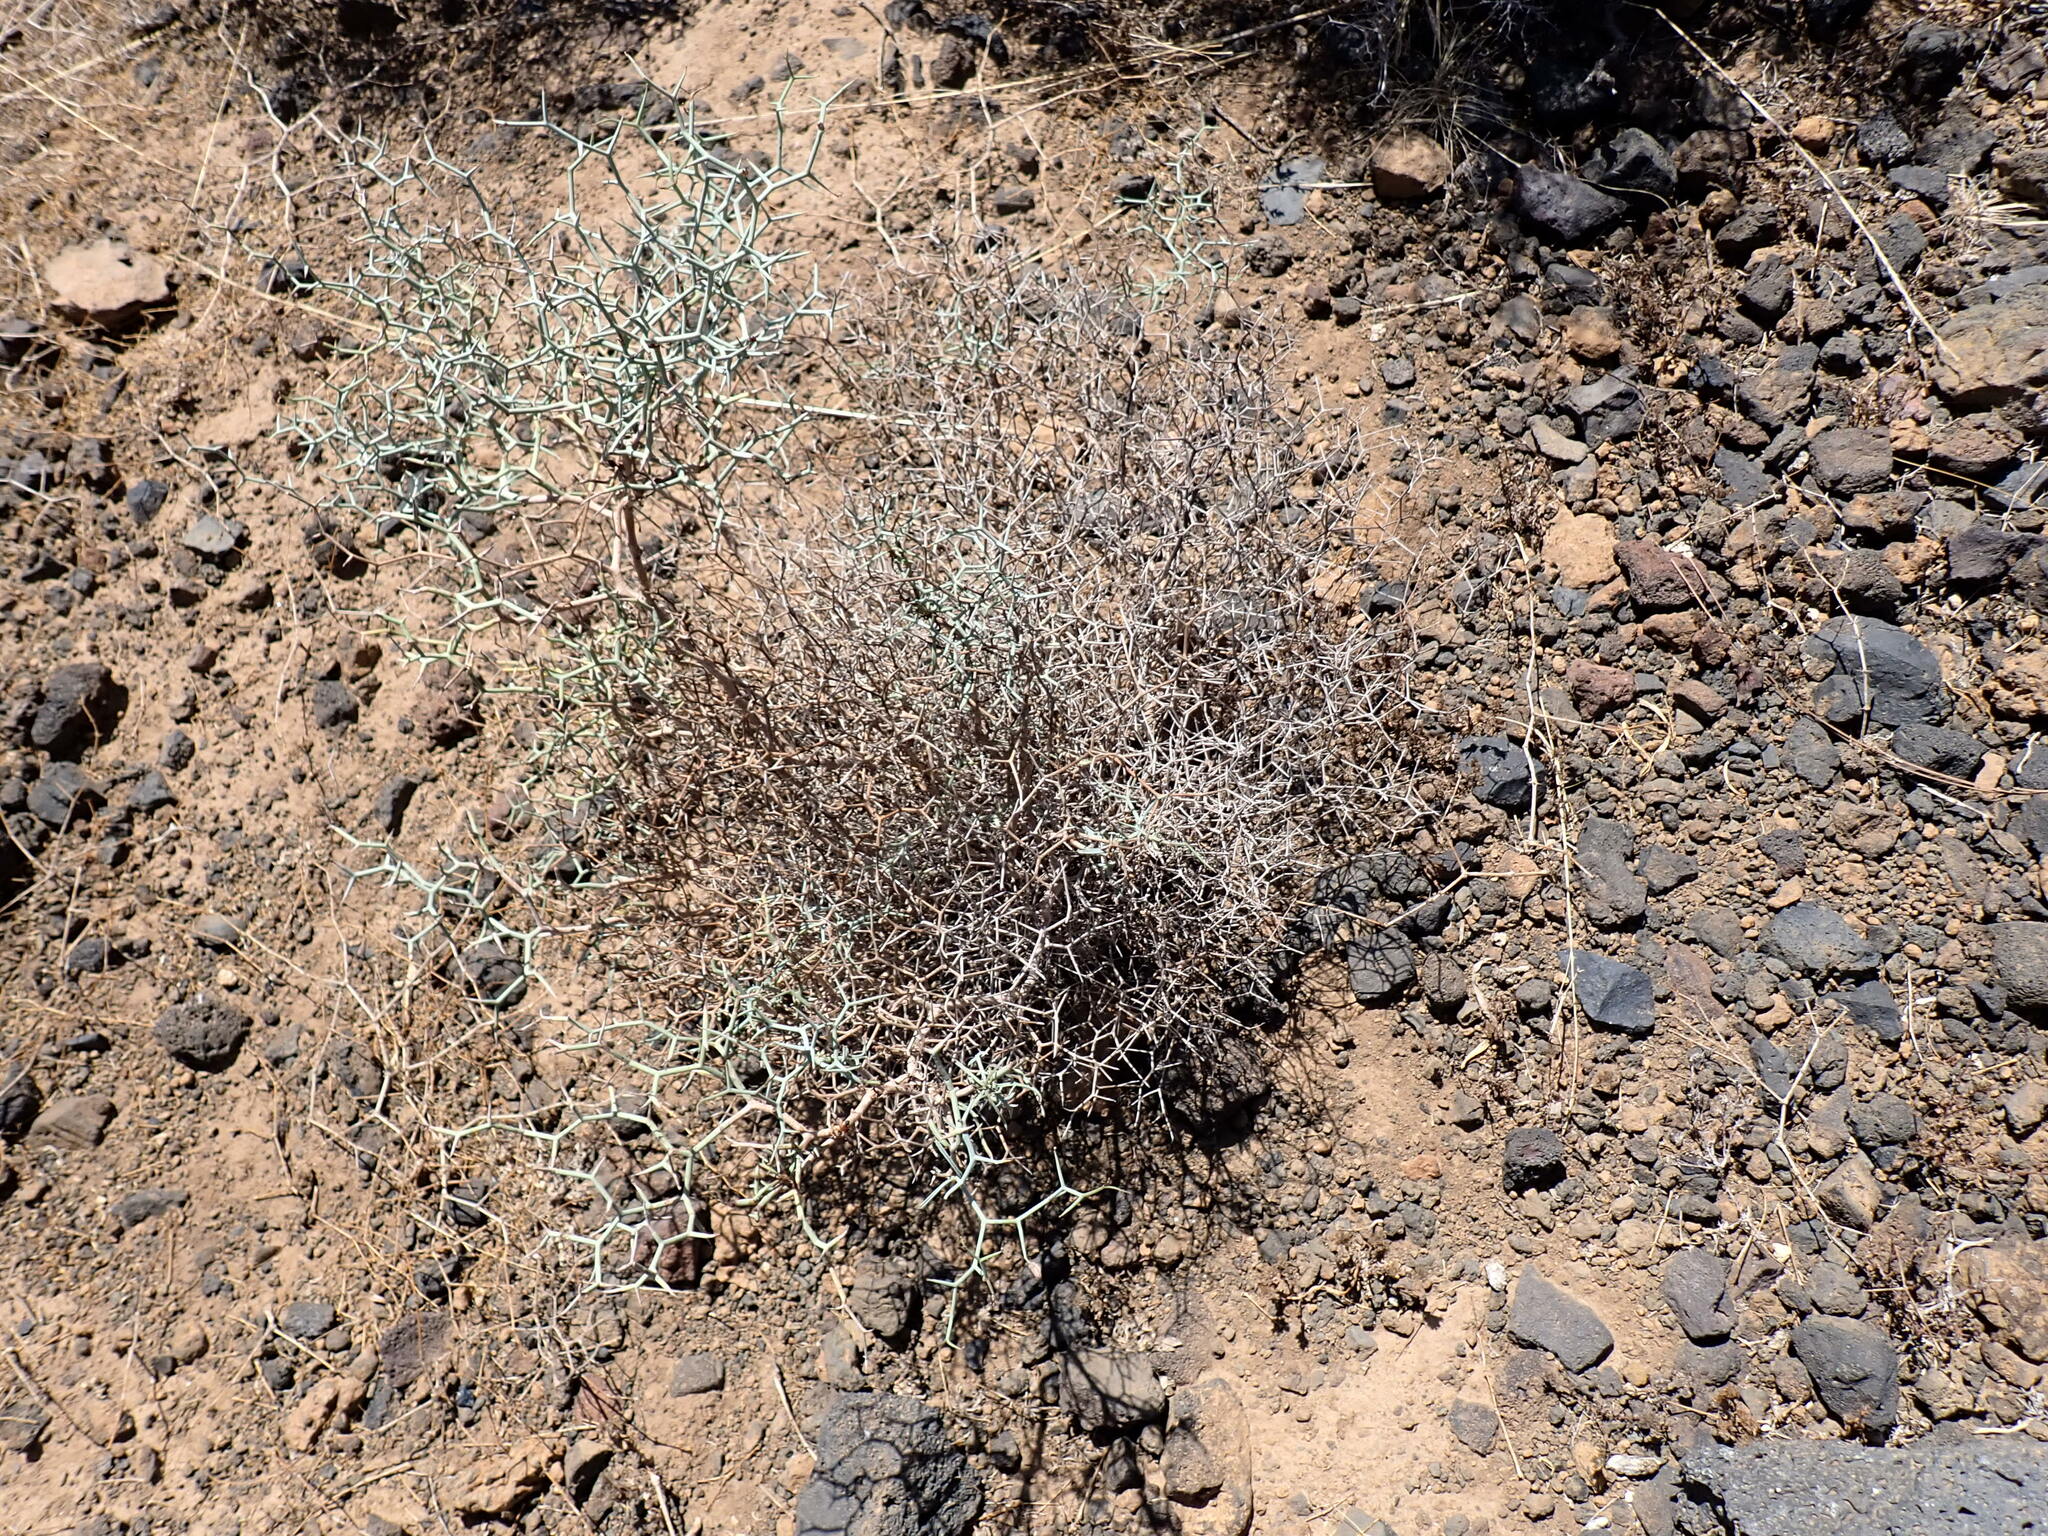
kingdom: Plantae
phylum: Tracheophyta
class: Magnoliopsida
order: Asterales
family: Asteraceae
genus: Launaea
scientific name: Launaea arborescens
